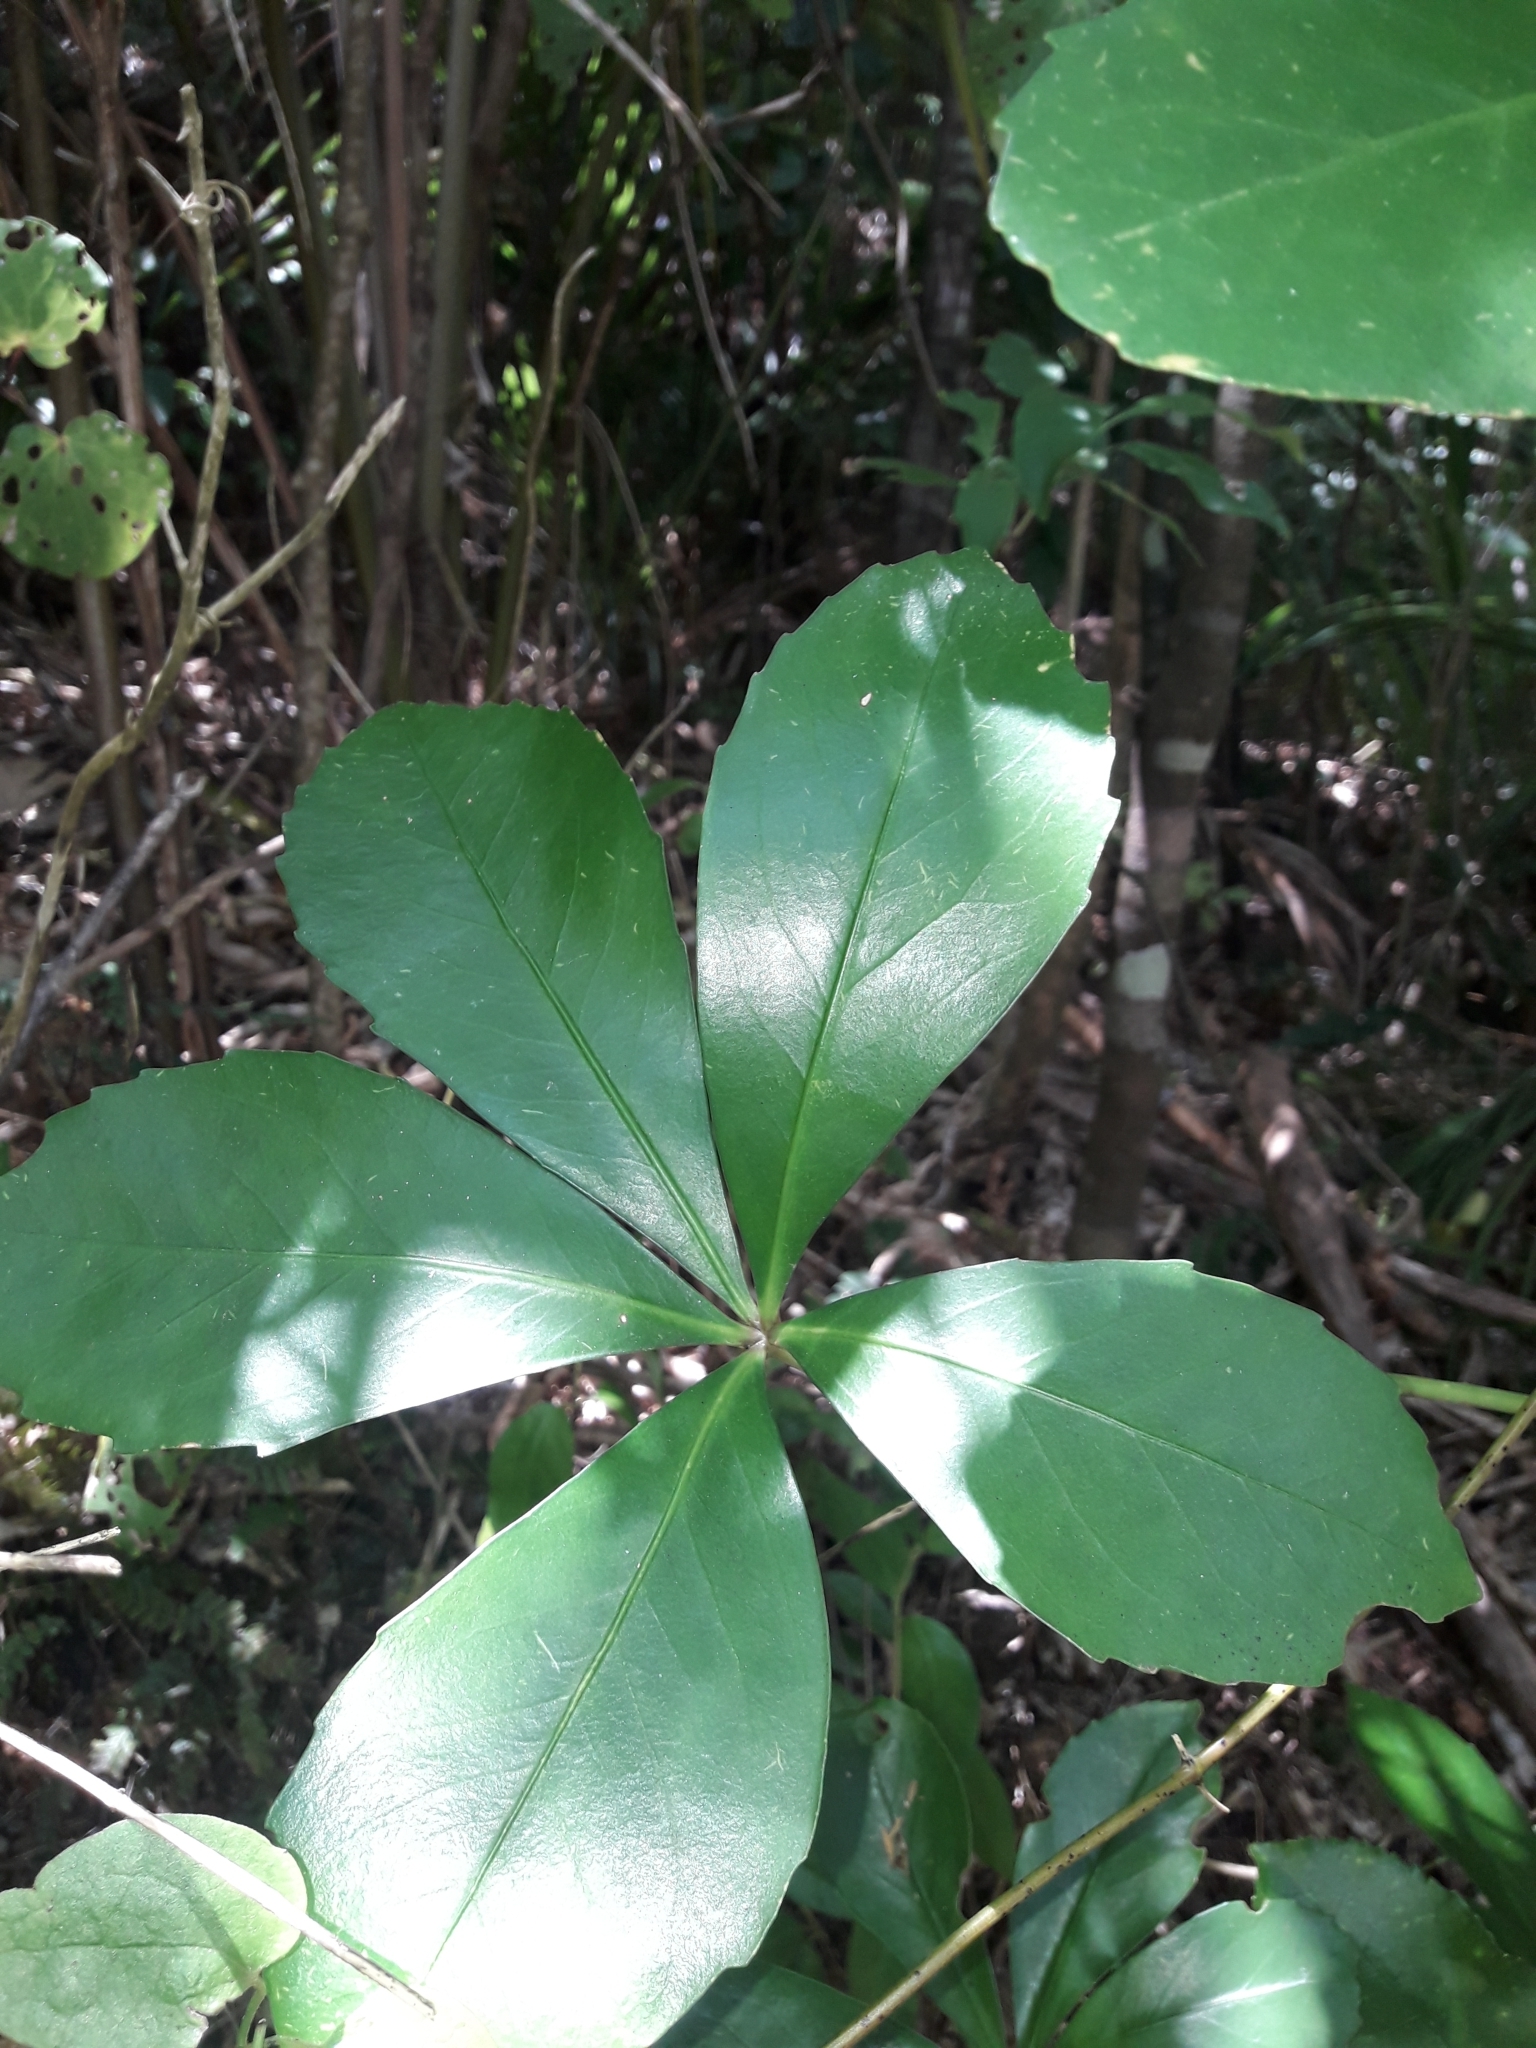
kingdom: Plantae
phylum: Tracheophyta
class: Magnoliopsida
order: Apiales
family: Araliaceae
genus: Pseudopanax
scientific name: Pseudopanax lessonii
